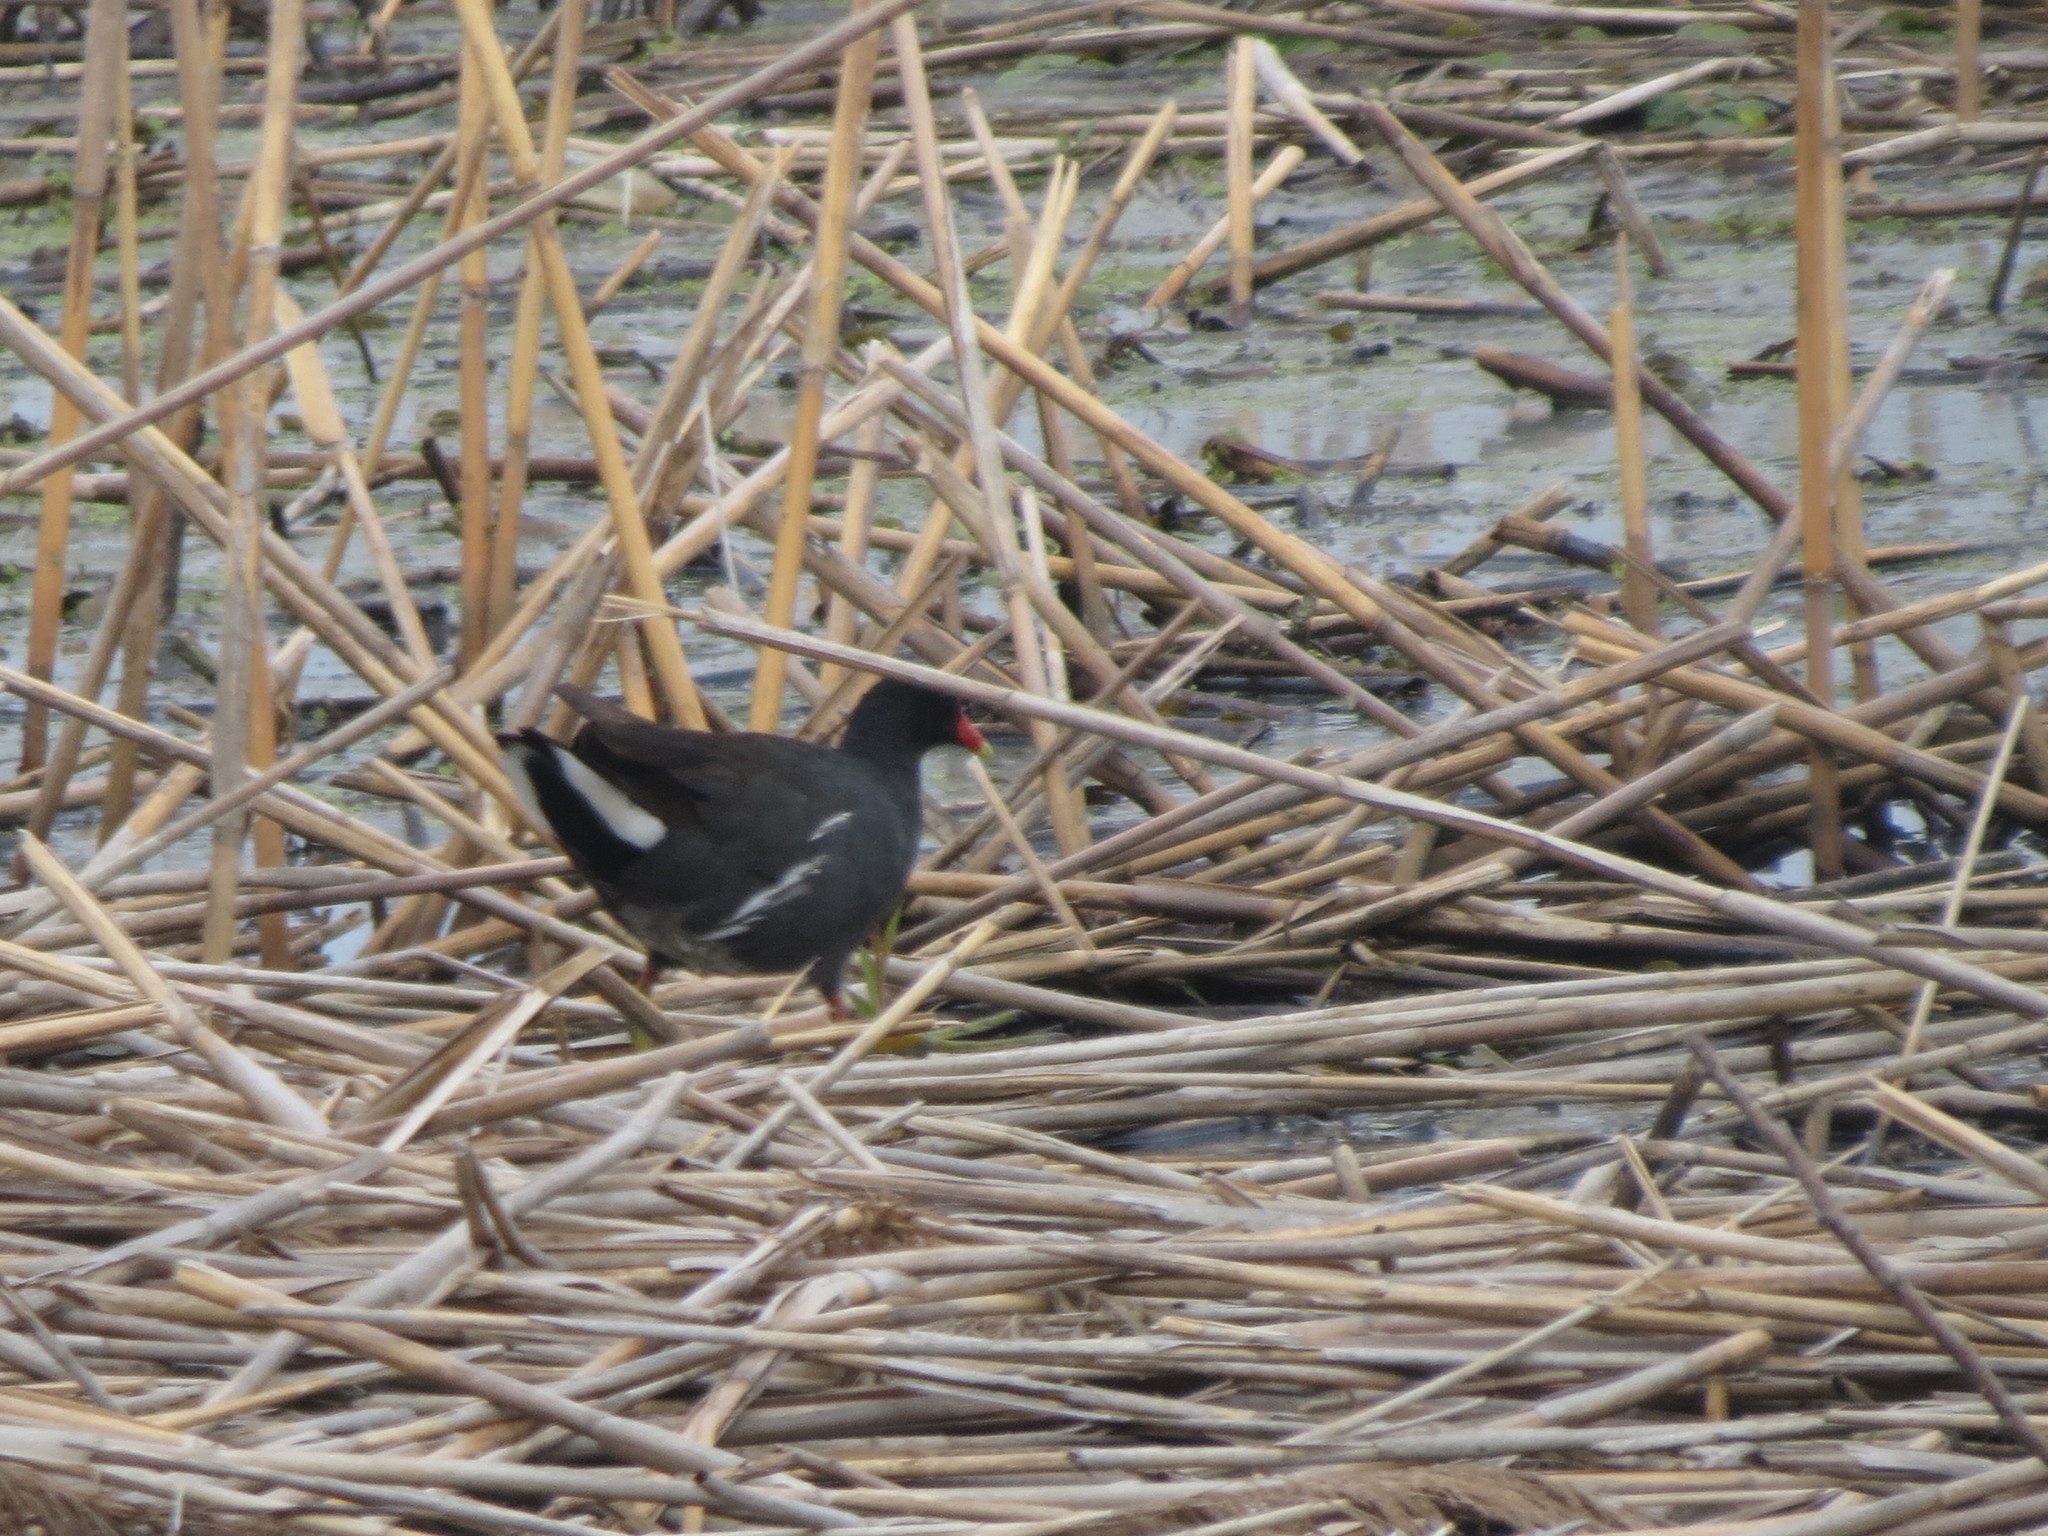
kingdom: Animalia
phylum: Chordata
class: Aves
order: Gruiformes
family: Rallidae
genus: Gallinula
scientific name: Gallinula chloropus
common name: Common moorhen
